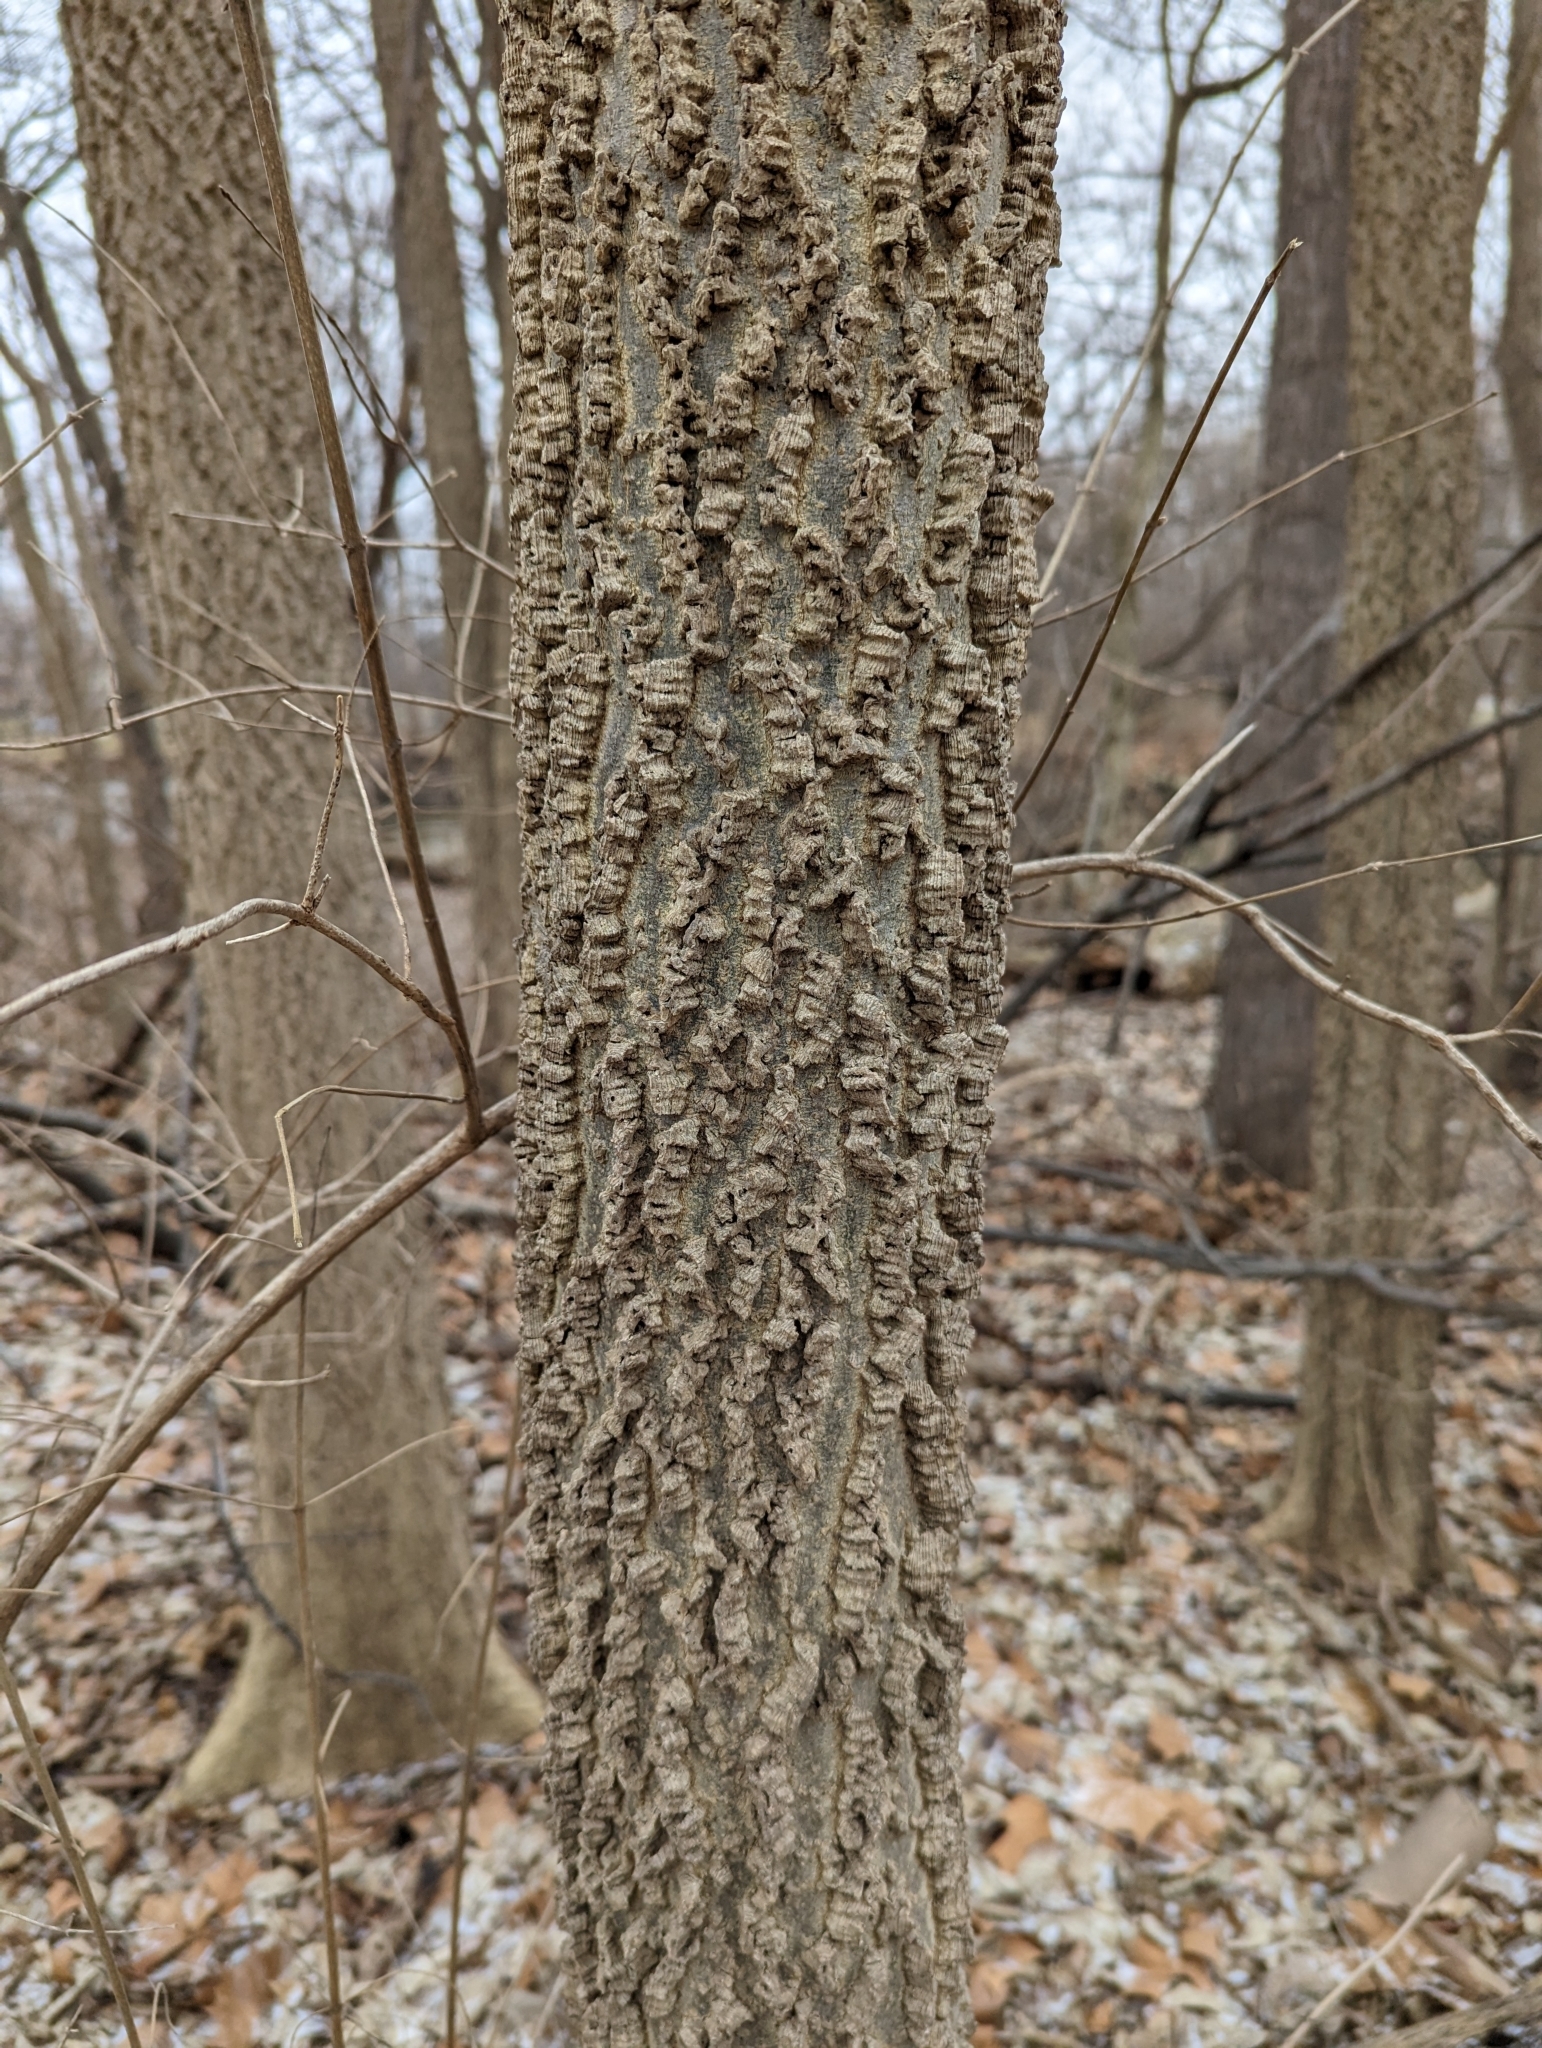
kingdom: Plantae
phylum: Tracheophyta
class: Magnoliopsida
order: Rosales
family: Cannabaceae
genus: Celtis
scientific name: Celtis occidentalis
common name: Common hackberry
